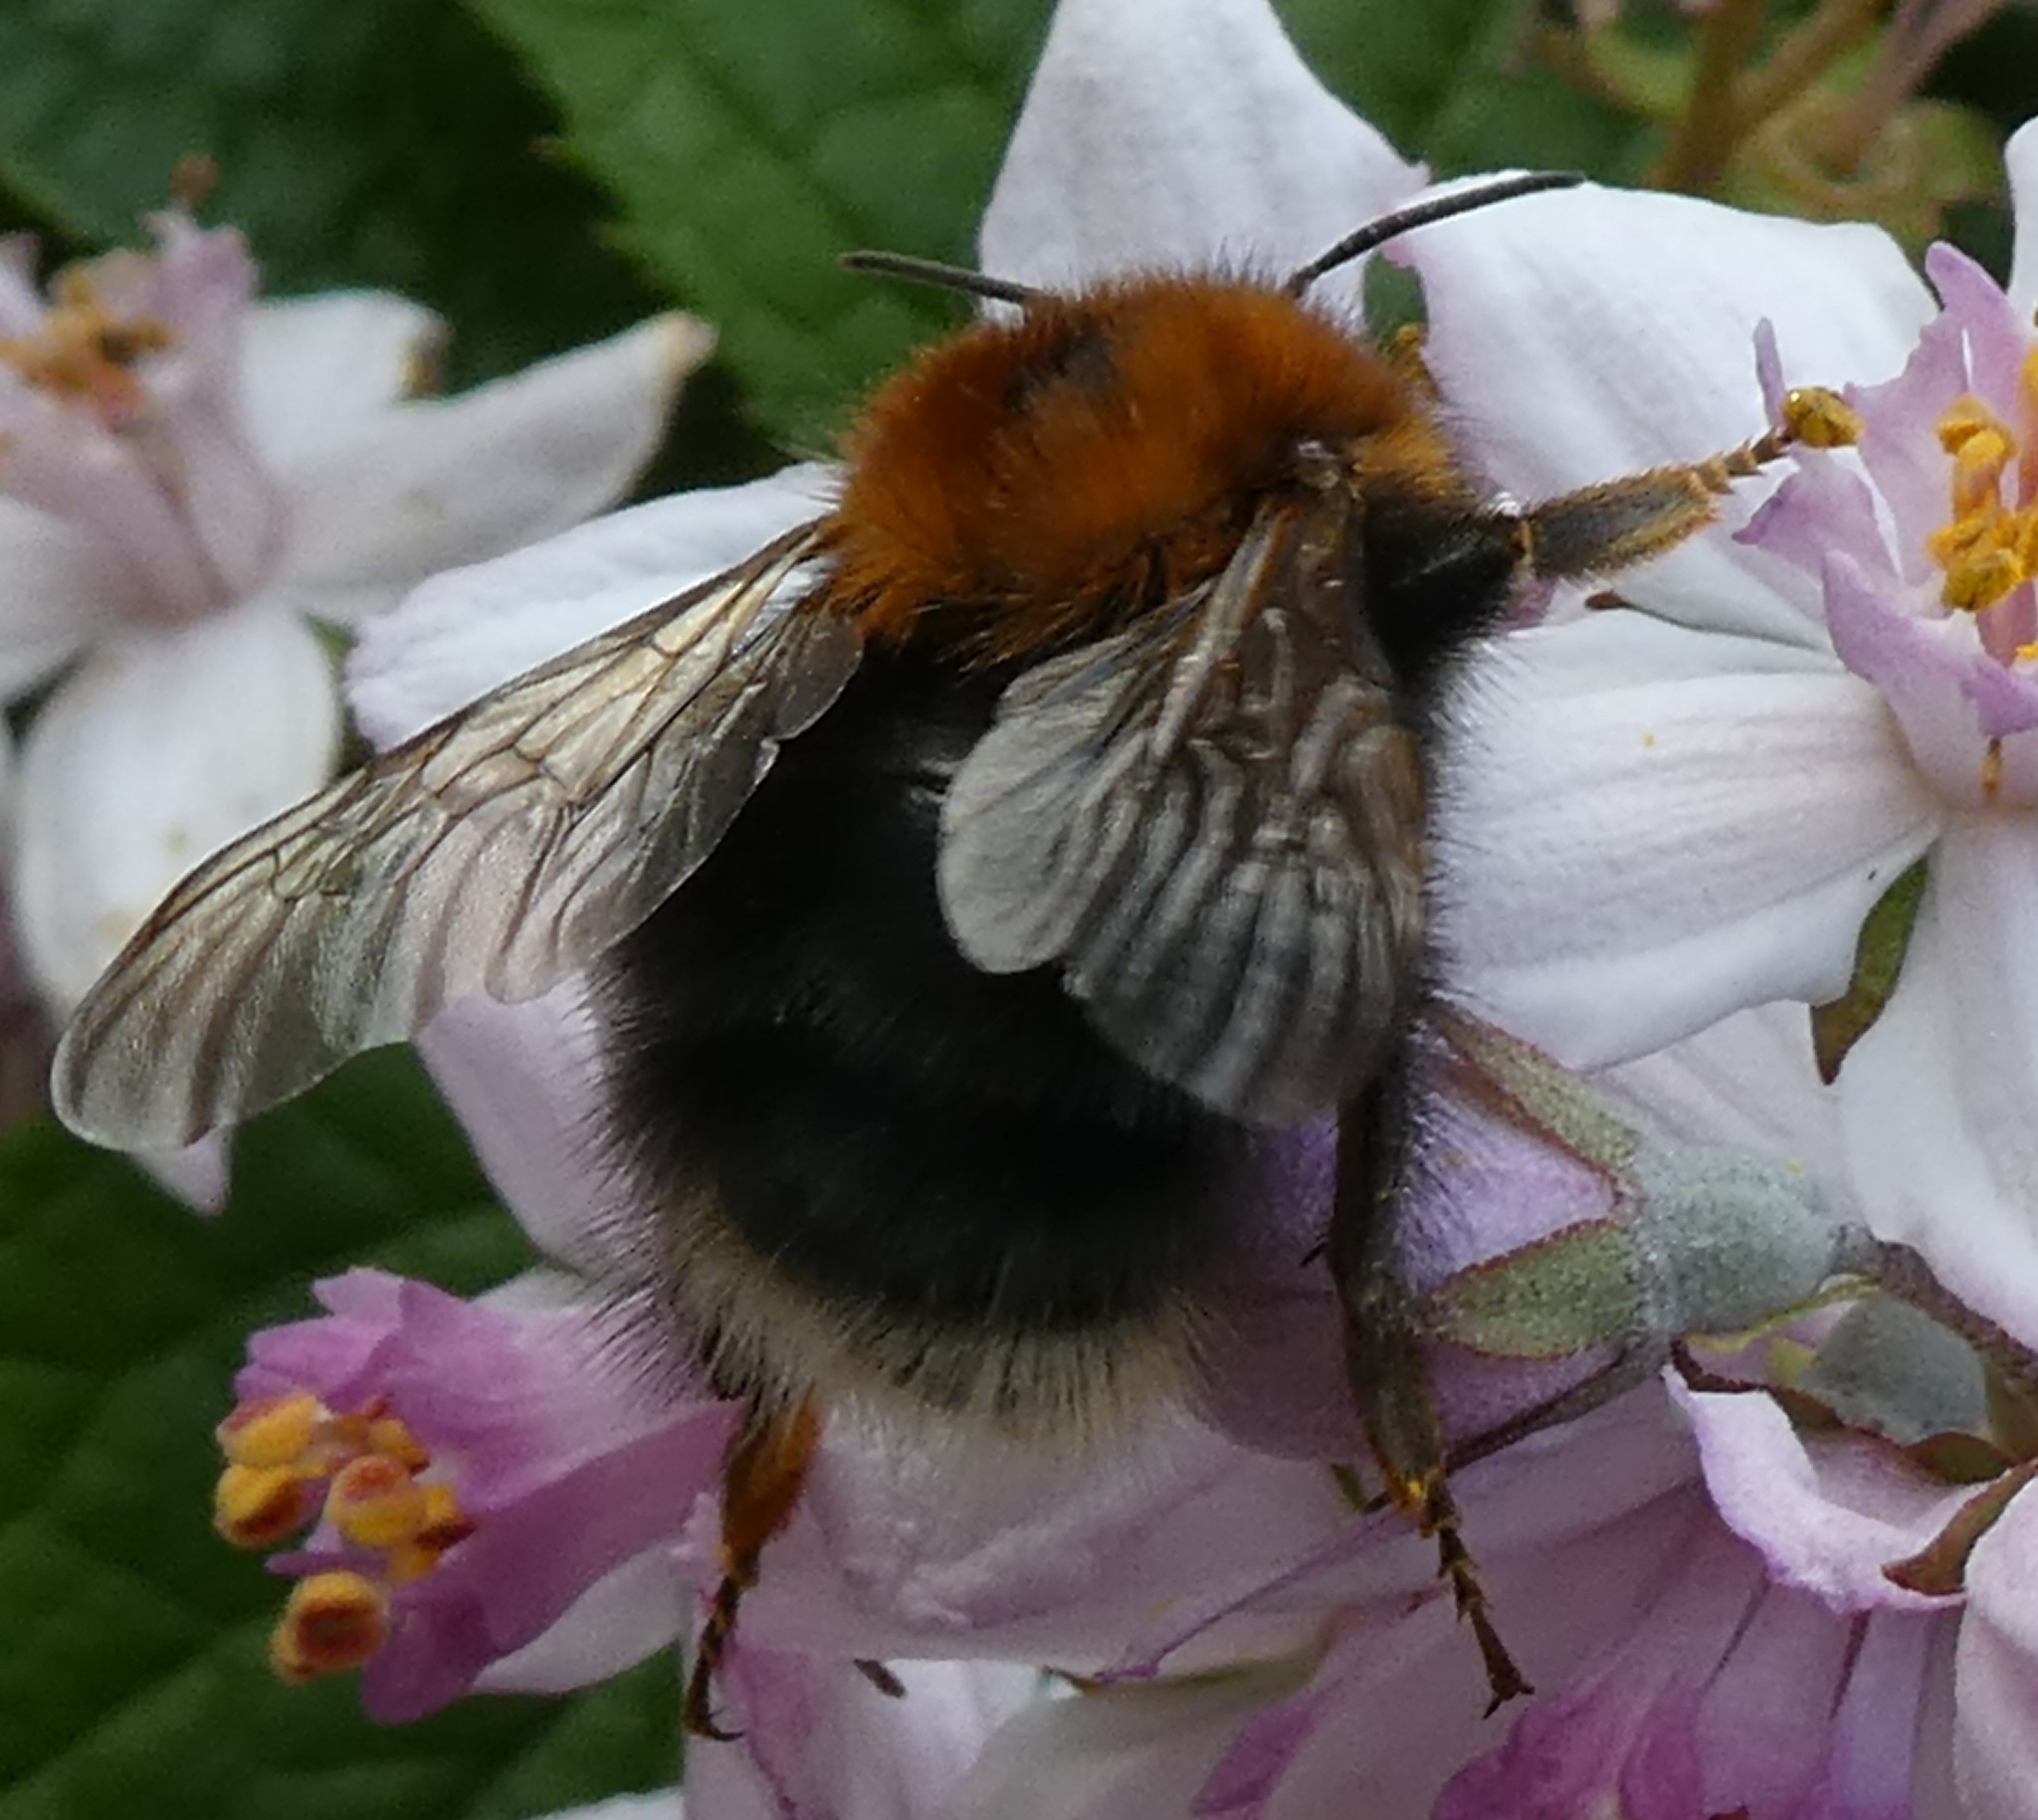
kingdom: Animalia
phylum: Arthropoda
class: Insecta
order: Hymenoptera
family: Apidae
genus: Bombus
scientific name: Bombus hypnorum
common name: New garden bumblebee
